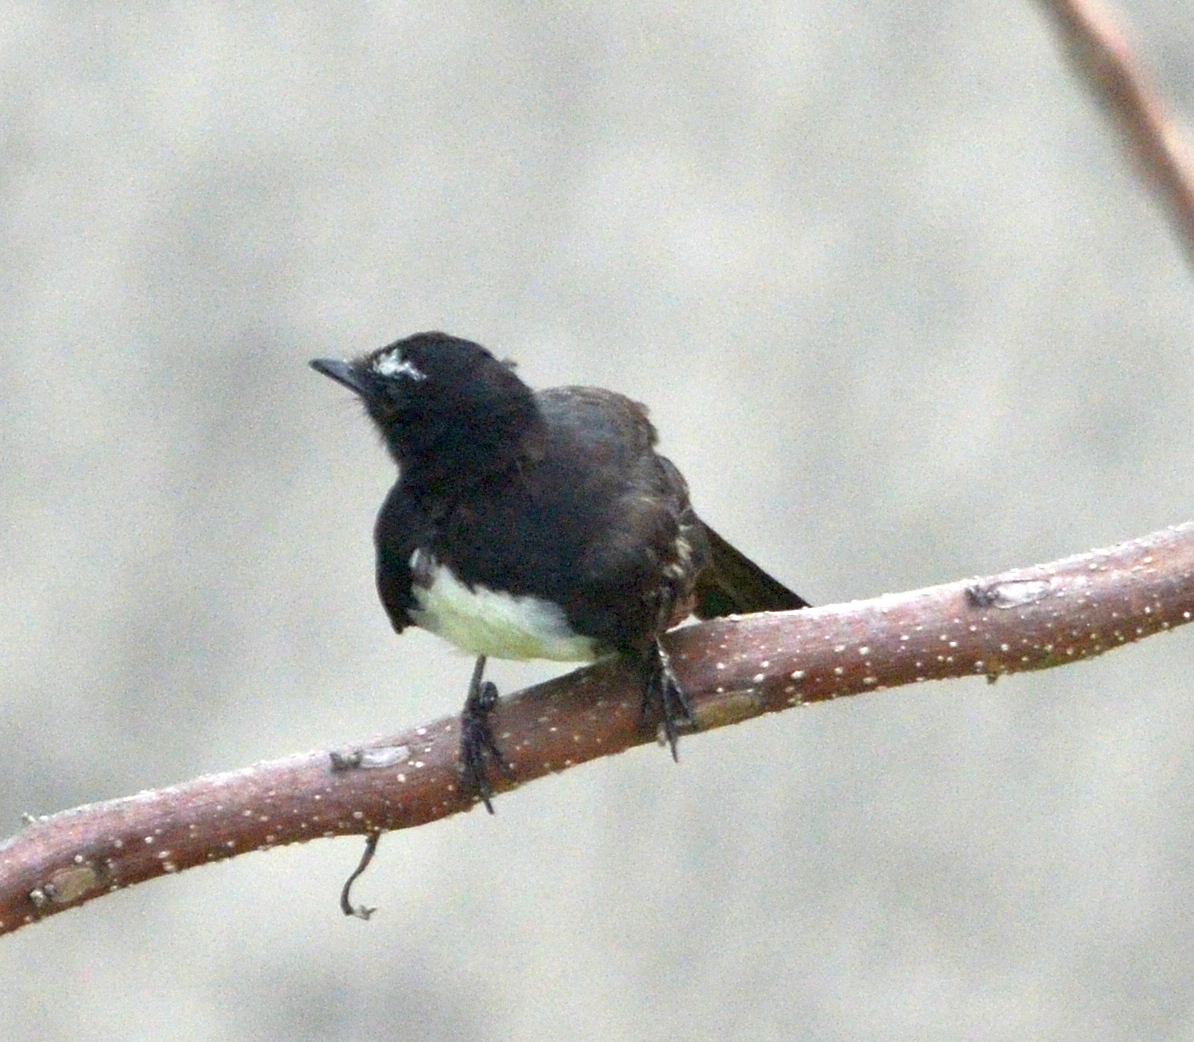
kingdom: Animalia
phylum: Chordata
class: Aves
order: Passeriformes
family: Rhipiduridae
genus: Rhipidura
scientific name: Rhipidura leucophrys
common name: Willie wagtail
